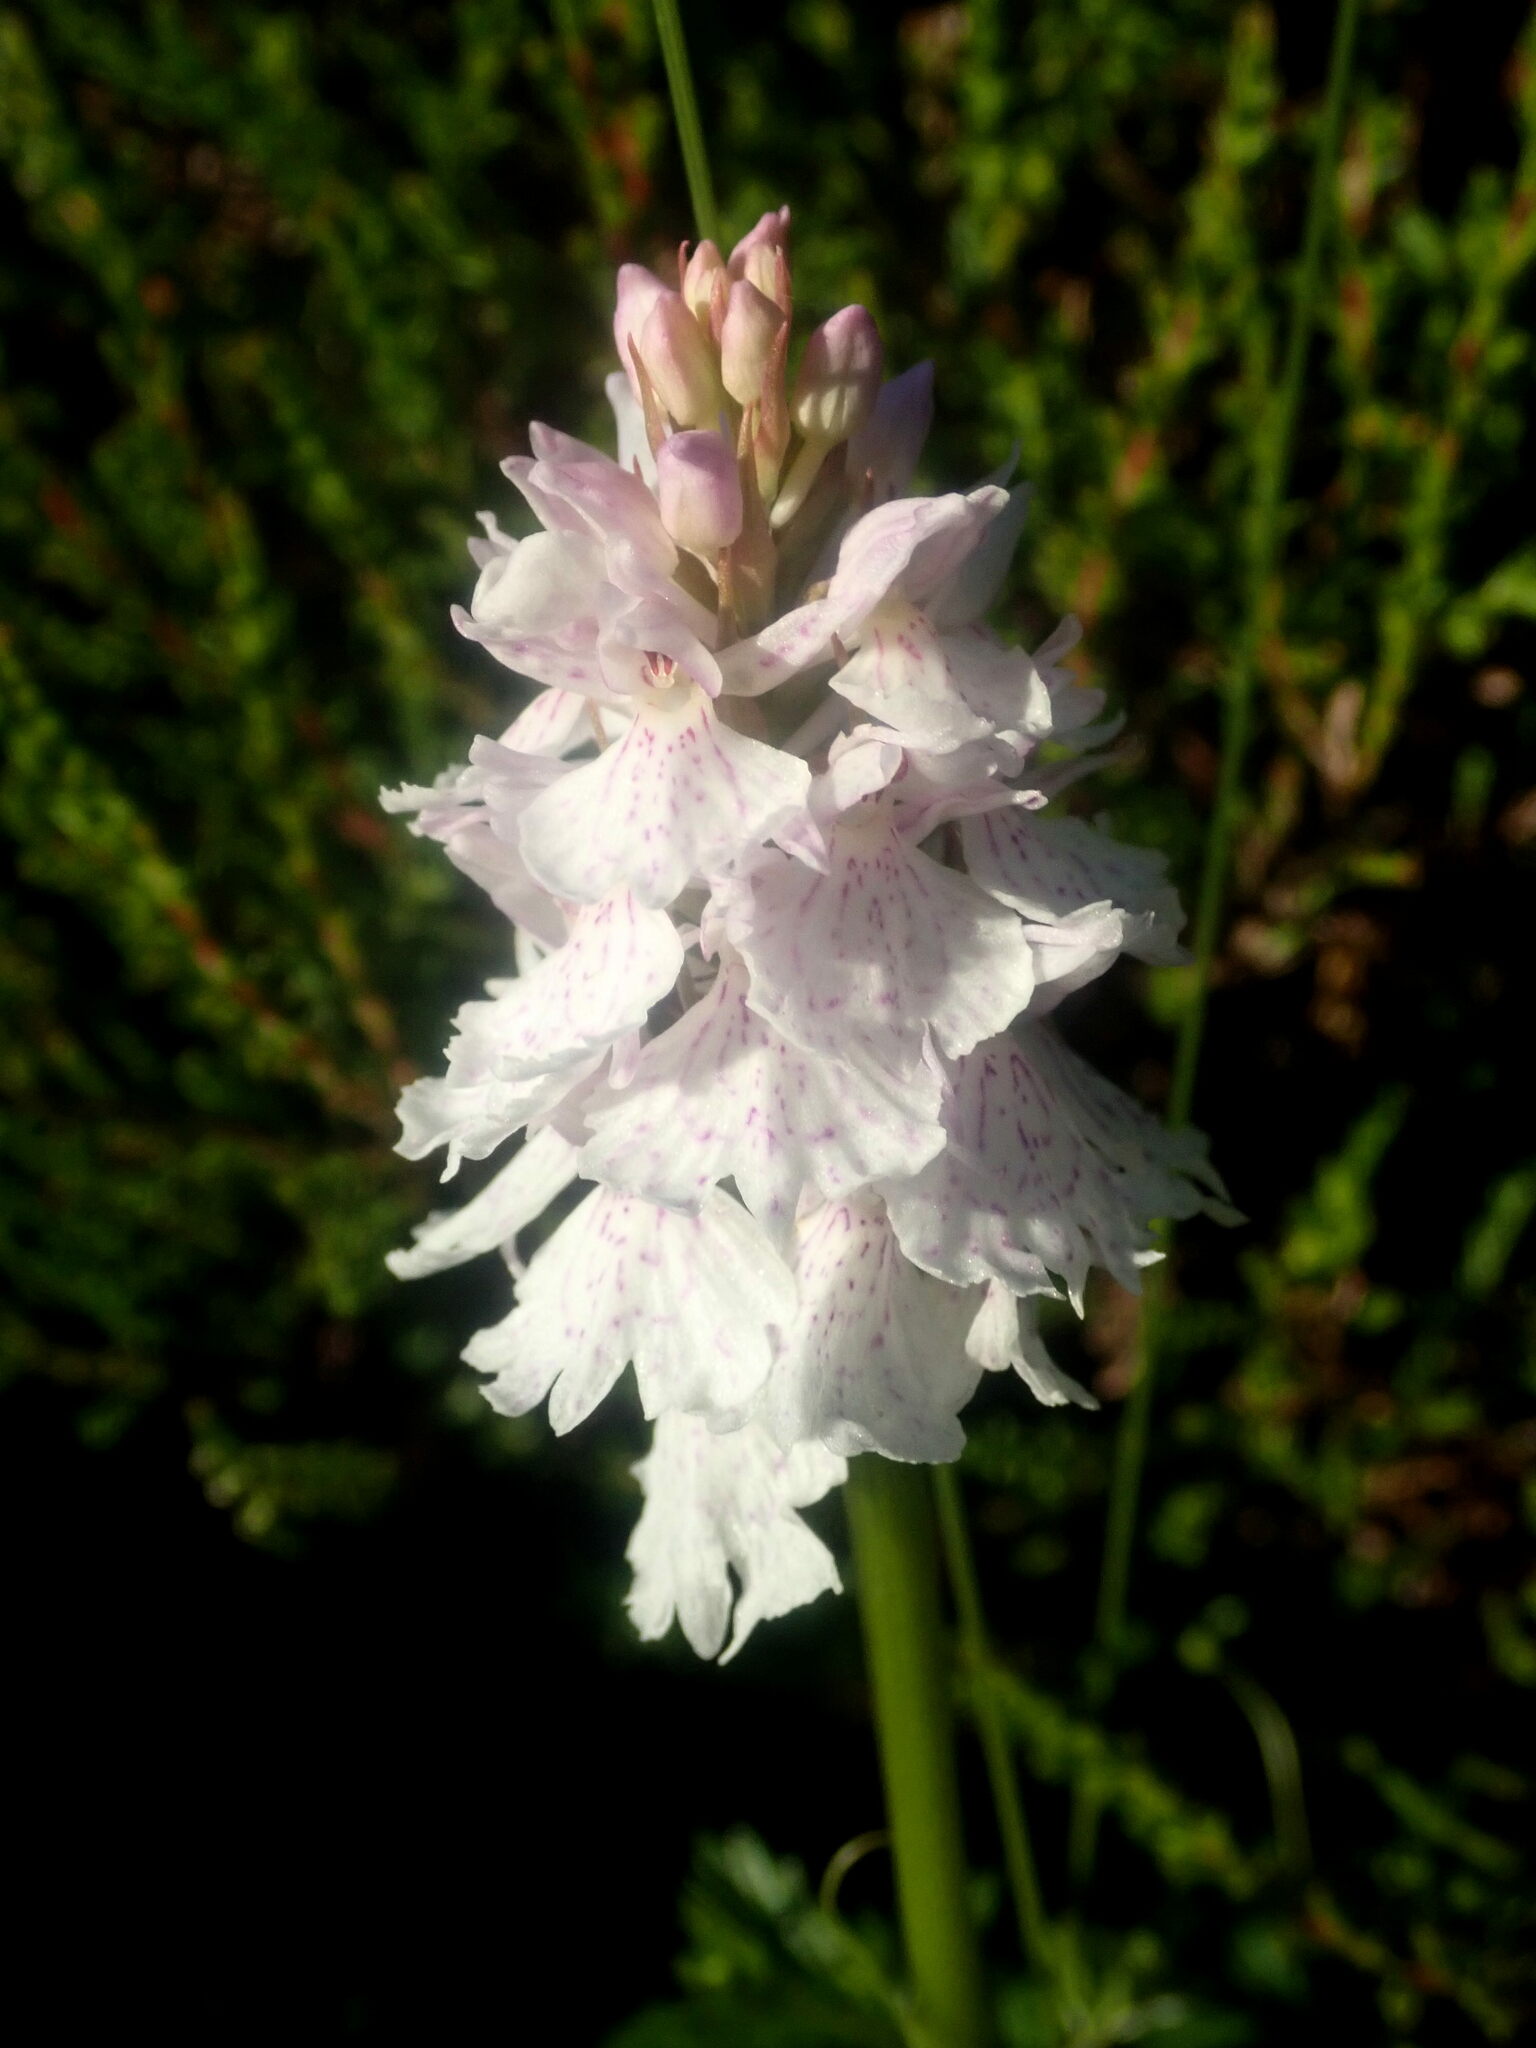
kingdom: Plantae
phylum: Tracheophyta
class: Liliopsida
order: Asparagales
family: Orchidaceae
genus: Dactylorhiza
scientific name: Dactylorhiza maculata
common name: Heath spotted-orchid
